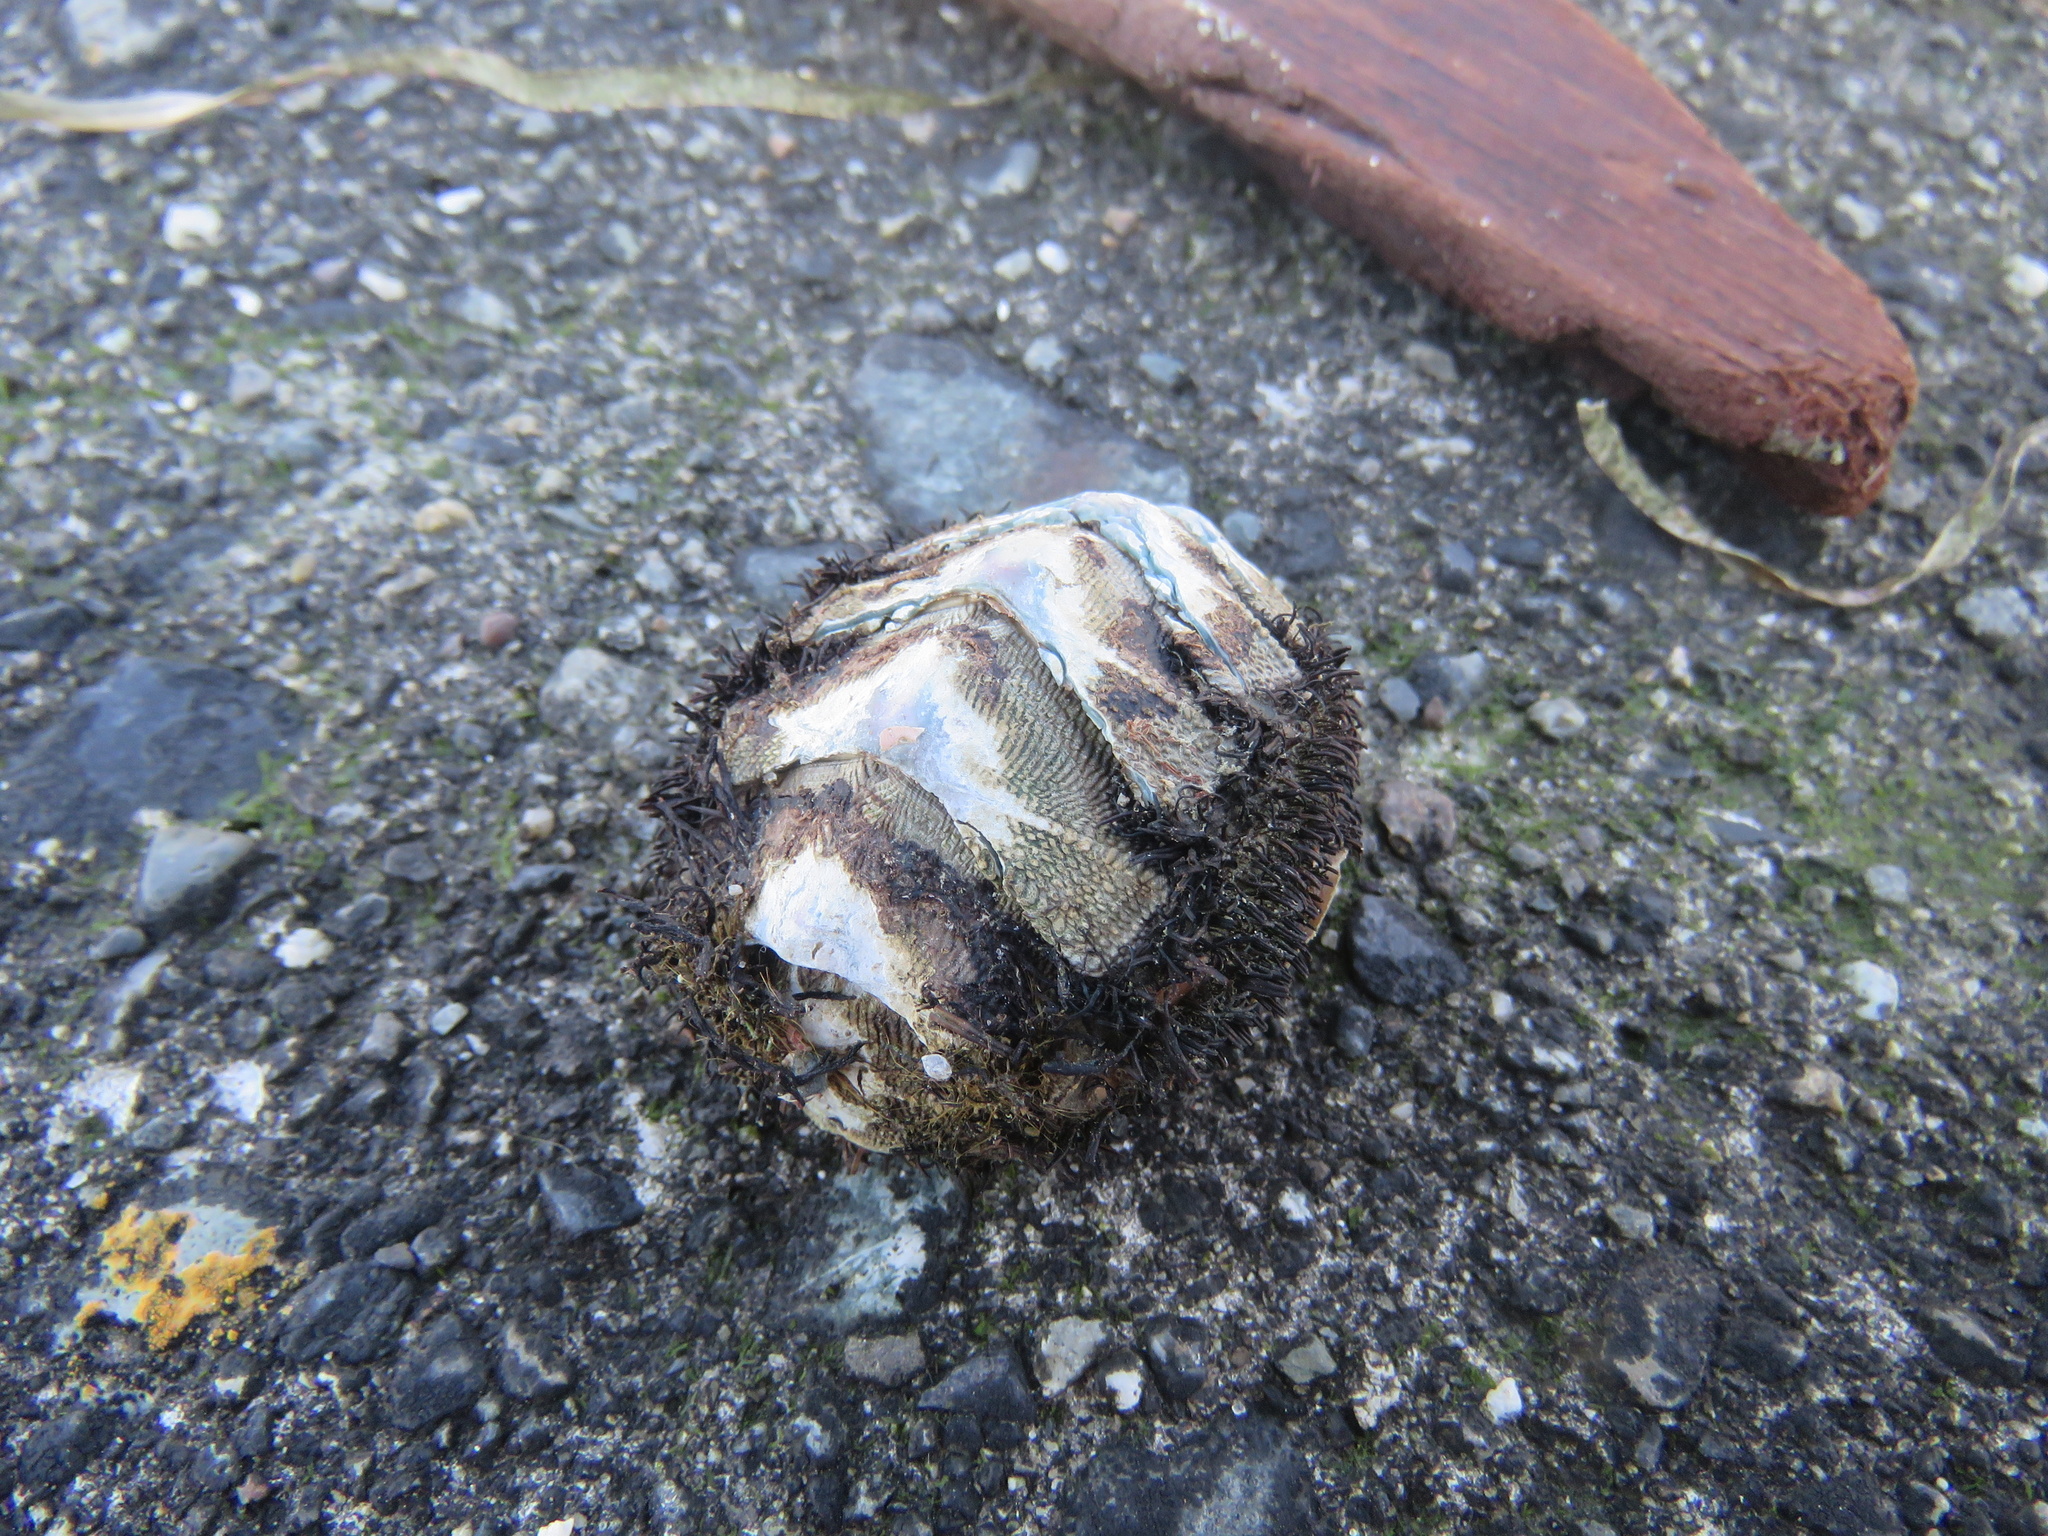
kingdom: Animalia
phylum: Mollusca
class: Polyplacophora
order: Chitonida
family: Mopaliidae
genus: Mopalia
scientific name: Mopalia muscosa
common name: Mossy chiton
